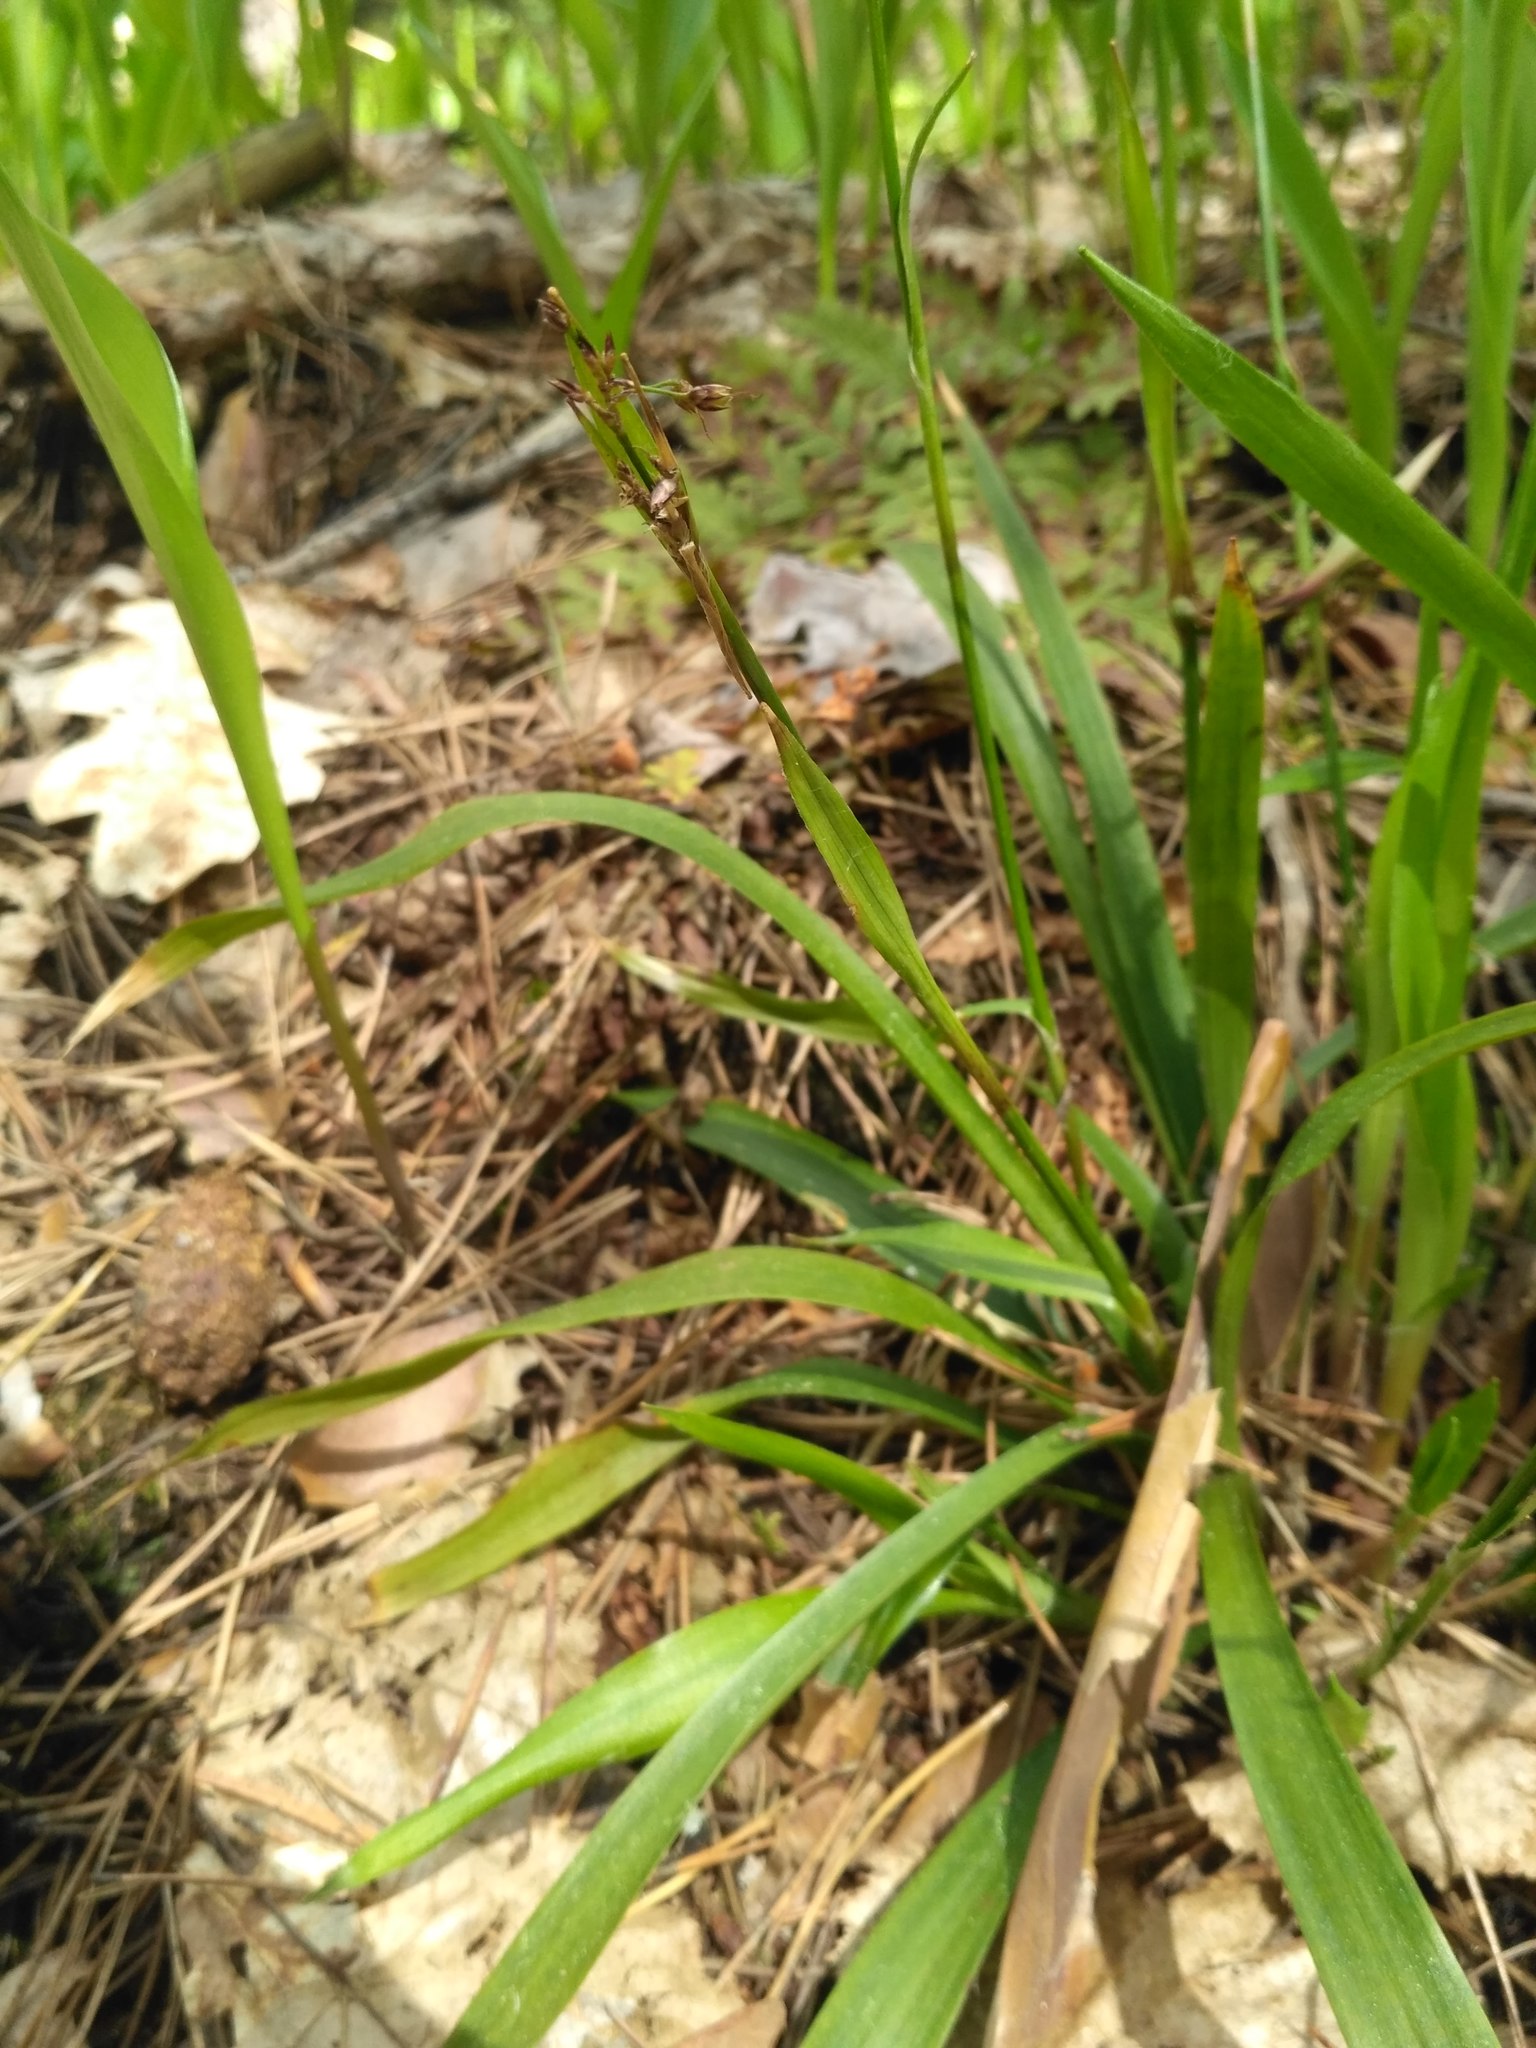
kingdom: Plantae
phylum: Tracheophyta
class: Liliopsida
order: Poales
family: Juncaceae
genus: Luzula
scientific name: Luzula pilosa
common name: Hairy wood-rush
